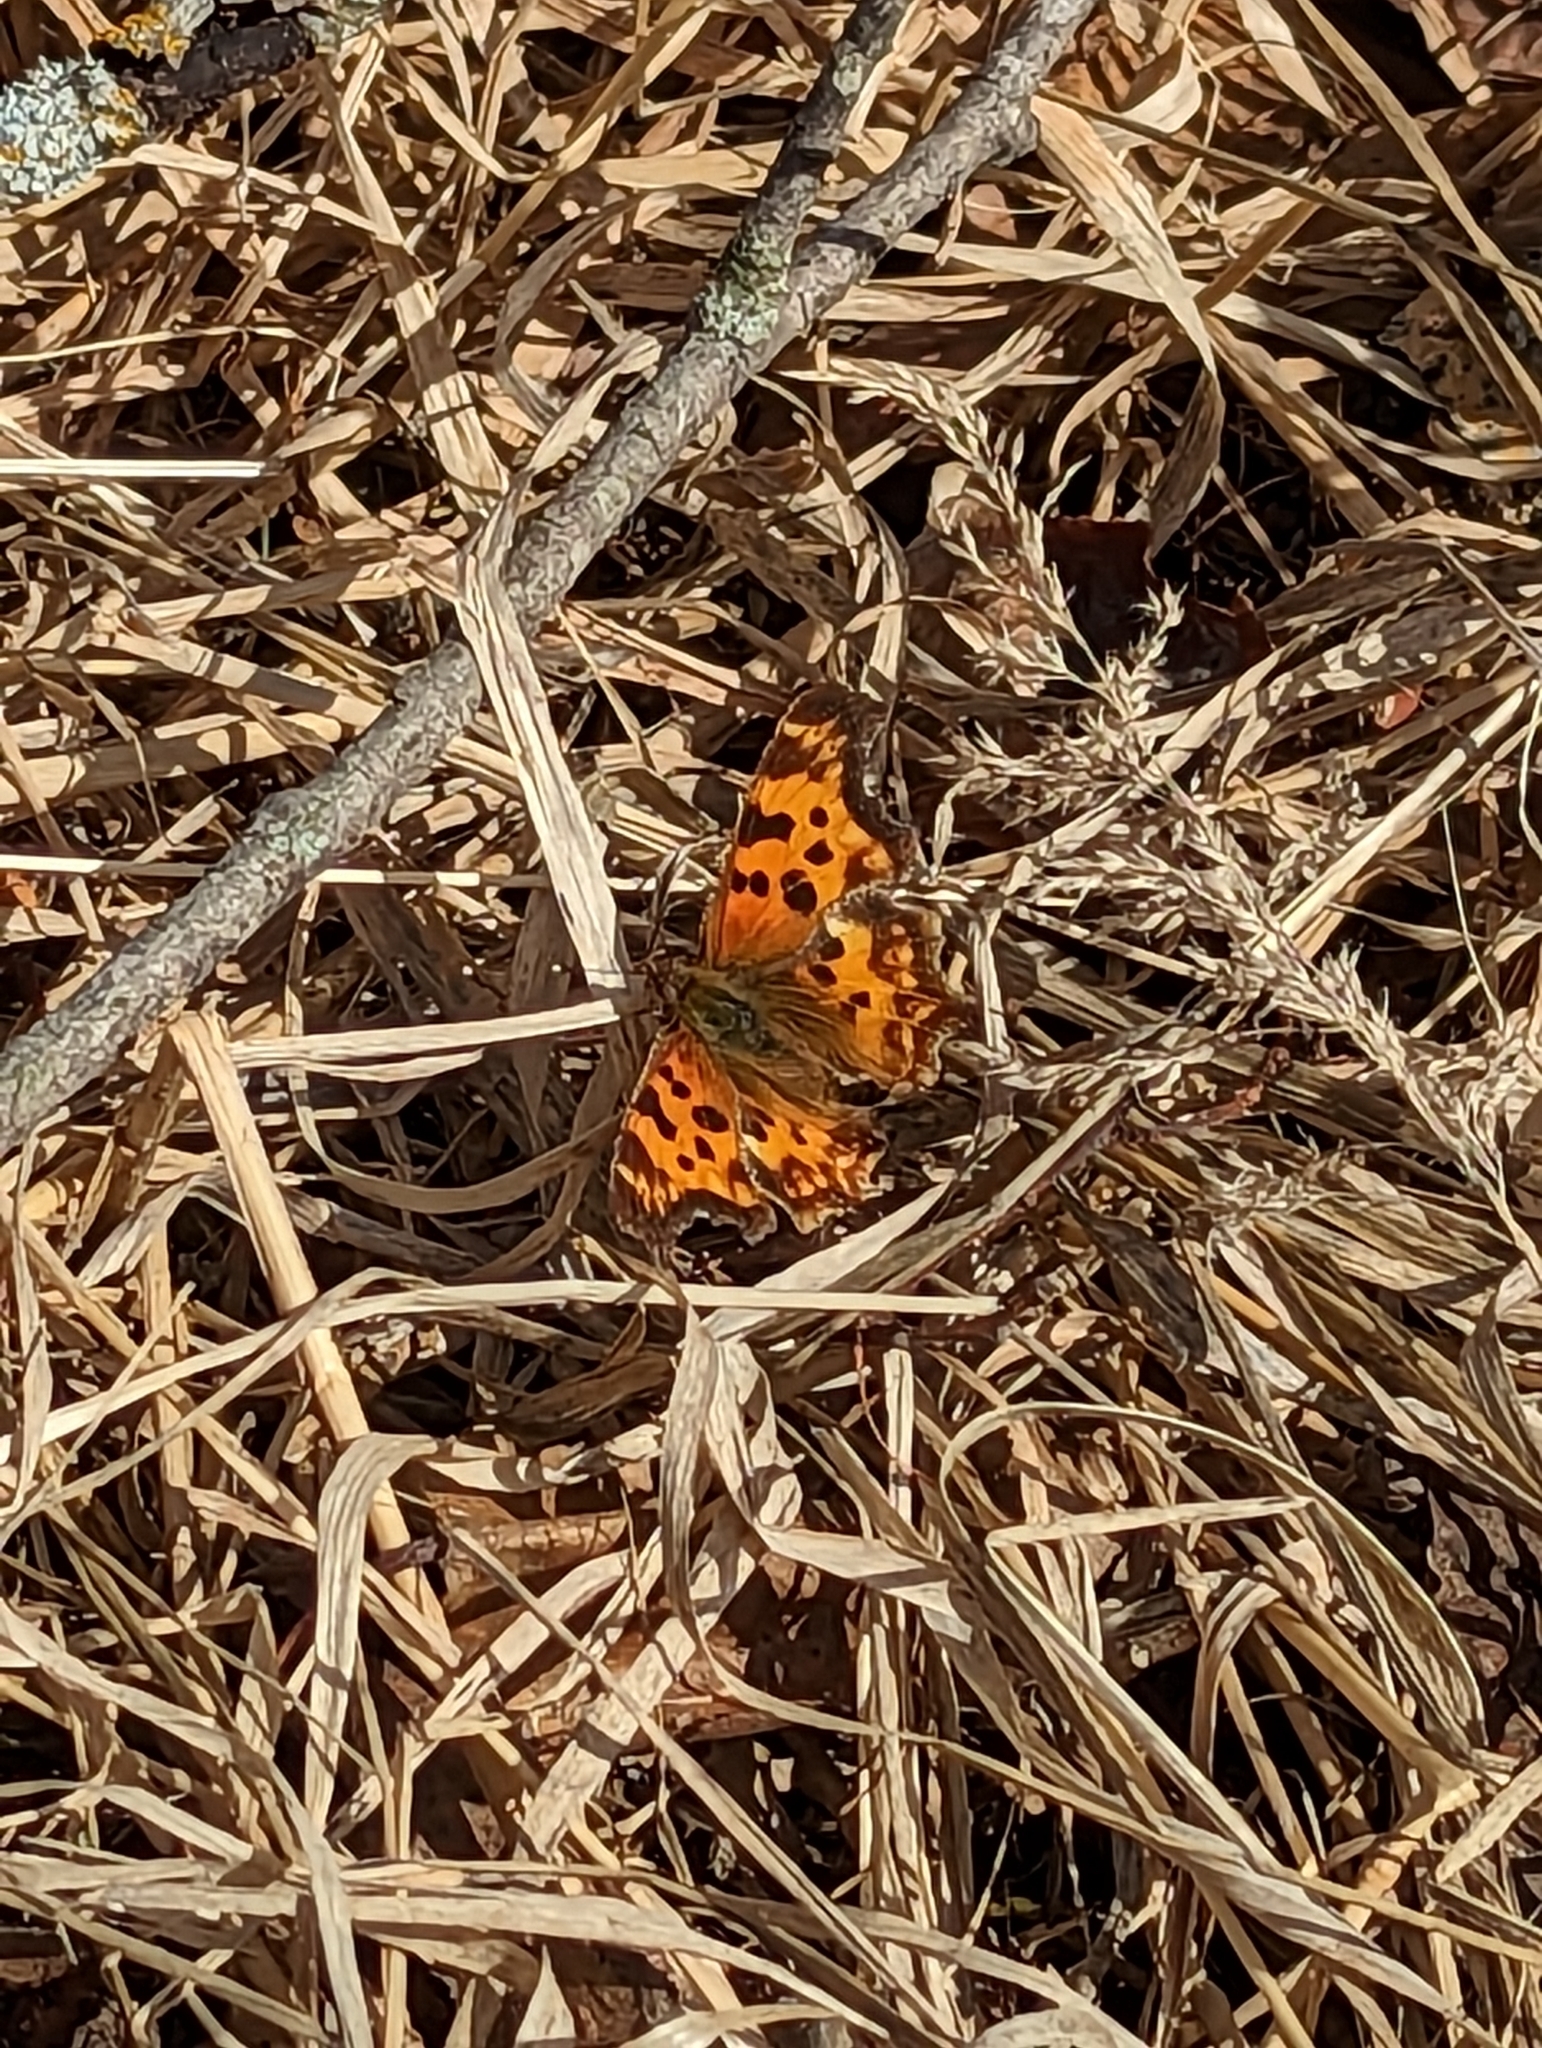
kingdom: Animalia
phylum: Arthropoda
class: Insecta
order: Lepidoptera
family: Nymphalidae
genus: Polygonia
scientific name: Polygonia satyrus
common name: Satyr angle wing
